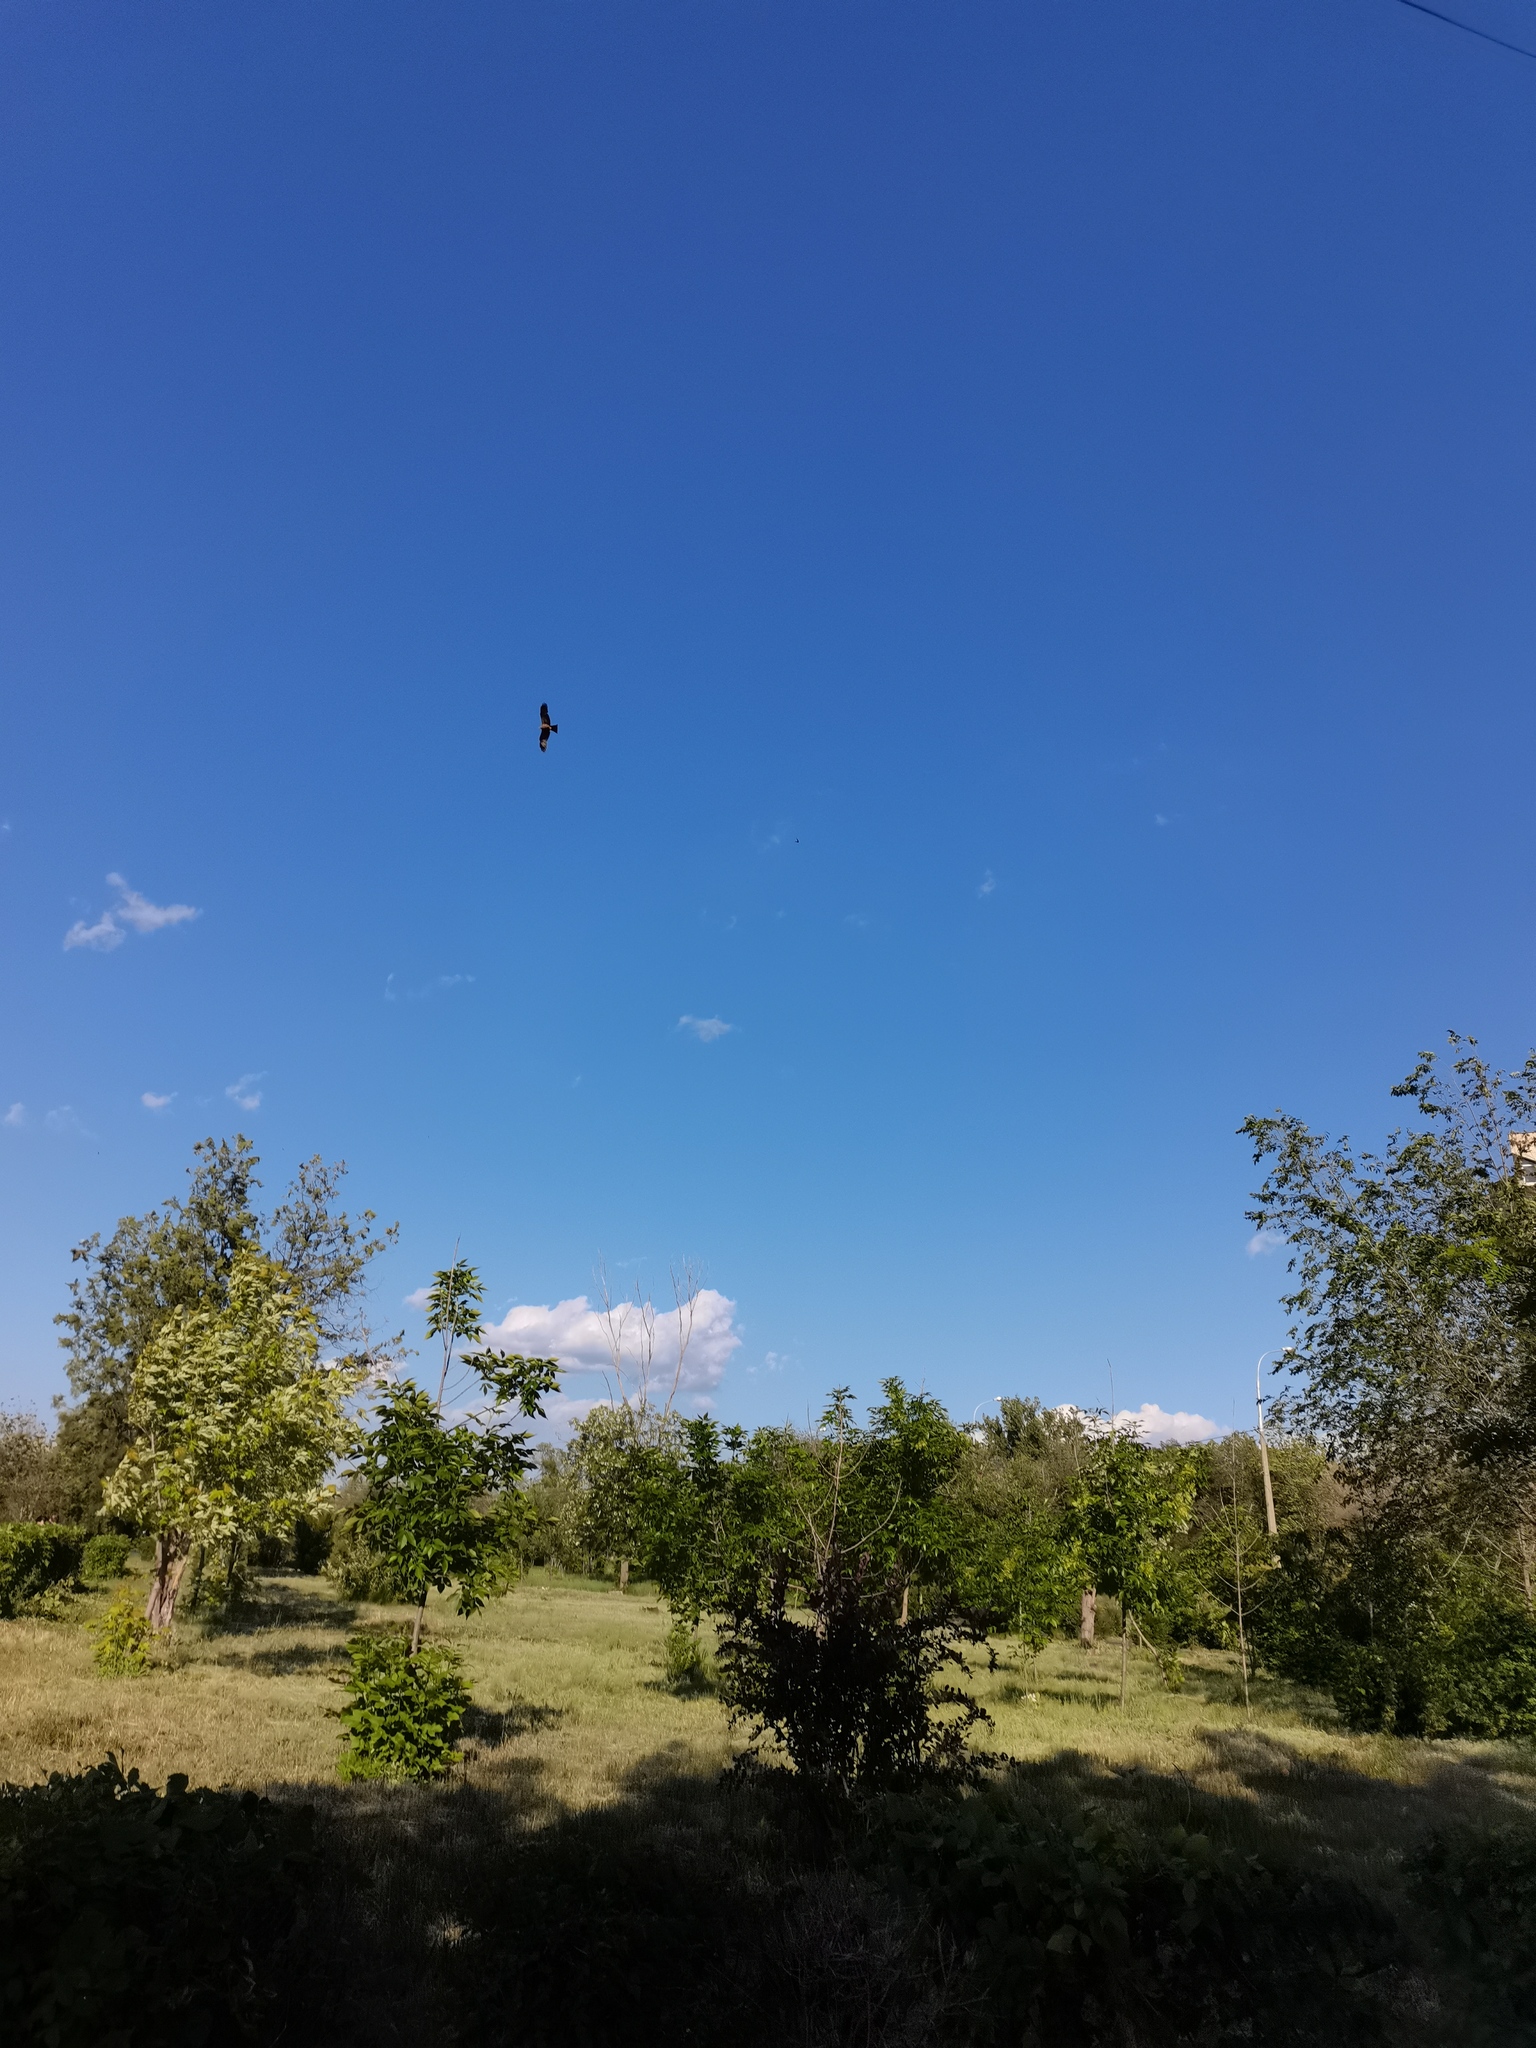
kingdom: Animalia
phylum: Chordata
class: Aves
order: Accipitriformes
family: Accipitridae
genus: Milvus
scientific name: Milvus migrans
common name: Black kite
